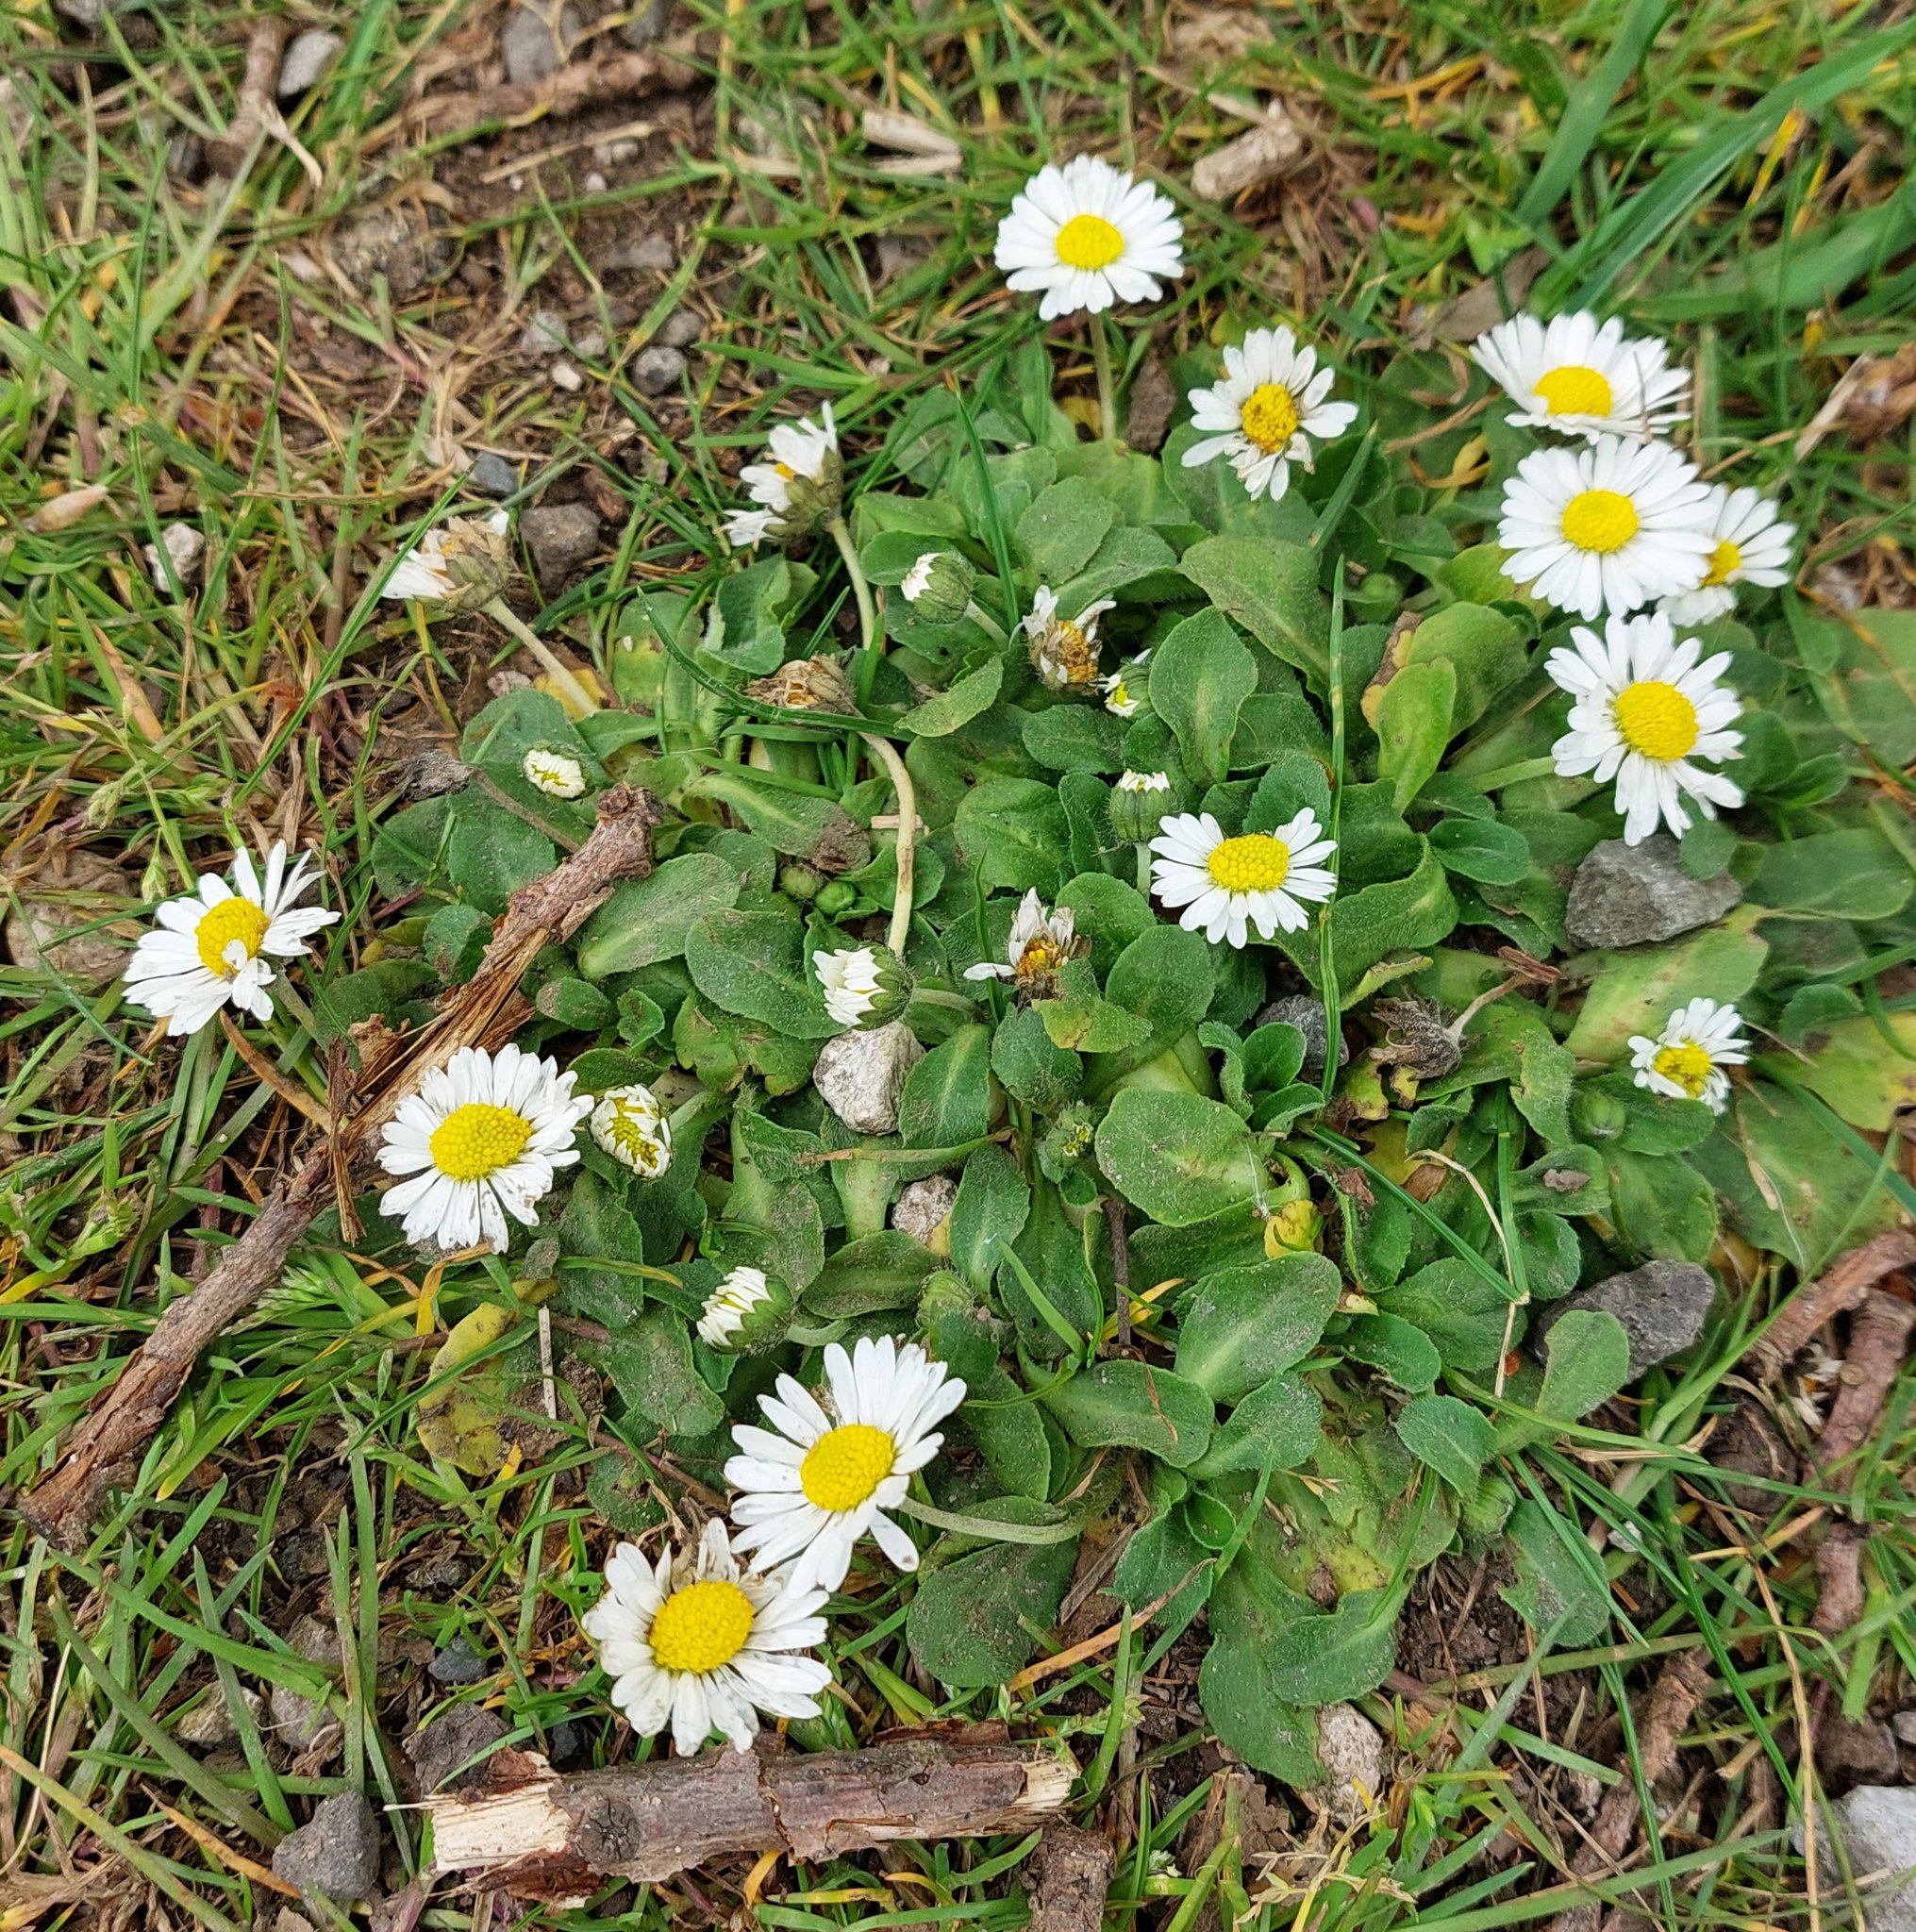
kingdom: Plantae
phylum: Tracheophyta
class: Magnoliopsida
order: Asterales
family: Asteraceae
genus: Bellis
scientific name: Bellis perennis
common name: Lawndaisy
